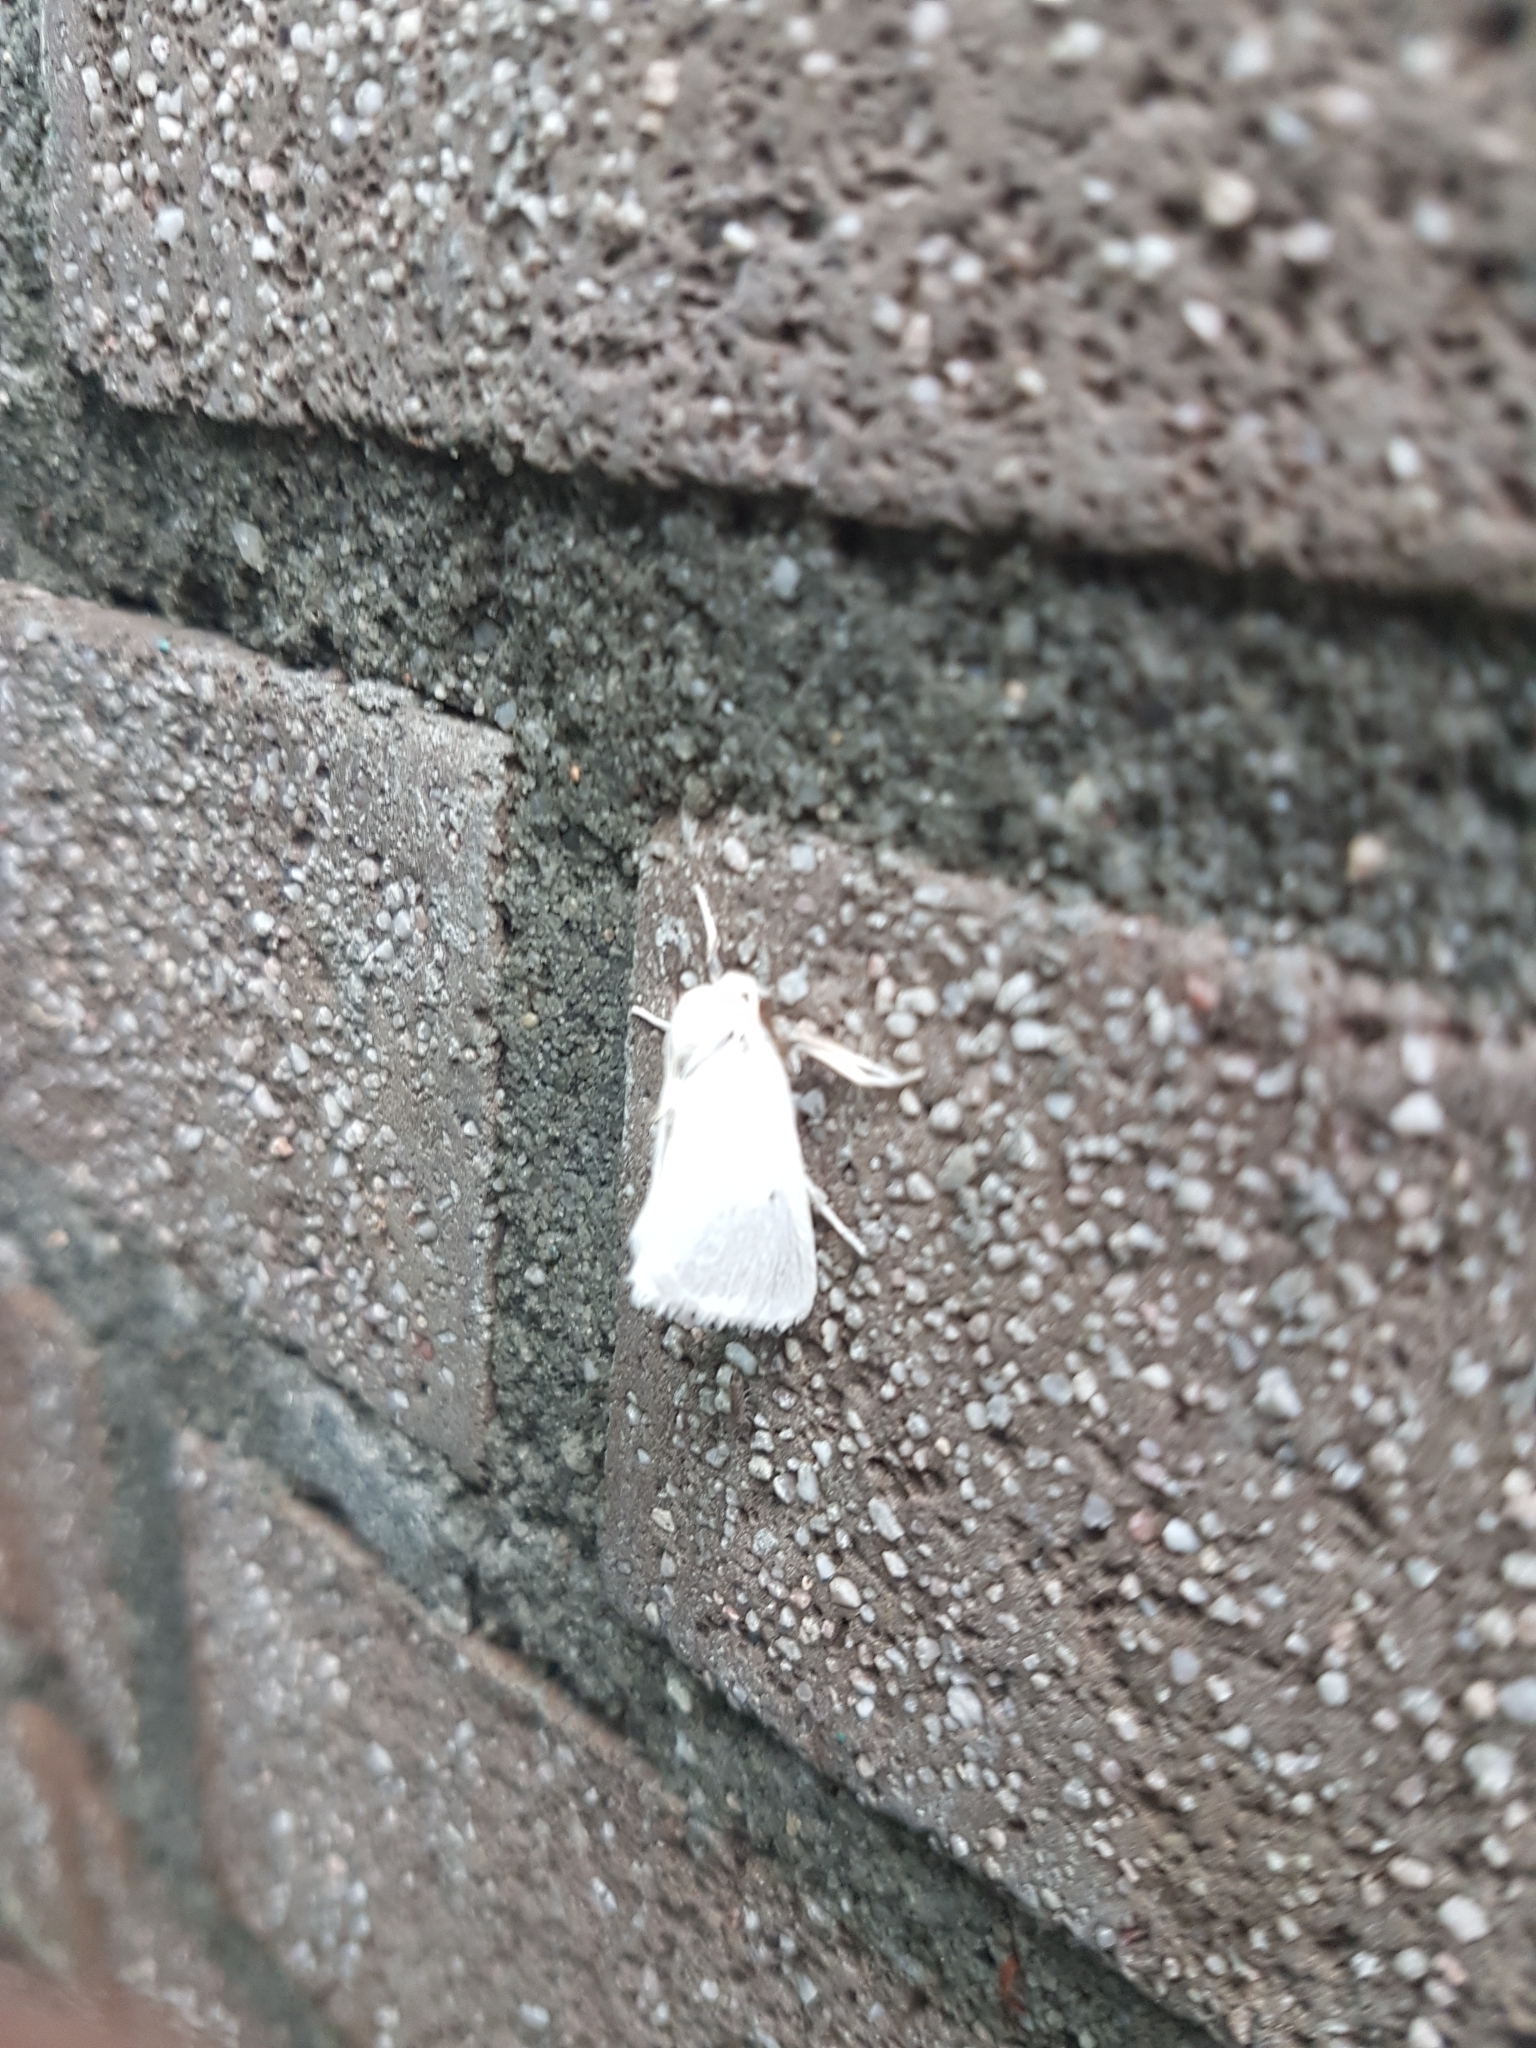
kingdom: Animalia
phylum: Arthropoda
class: Insecta
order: Lepidoptera
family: Erebidae
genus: Euproctis
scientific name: Euproctis chrysorrhoea
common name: Brown-tail
